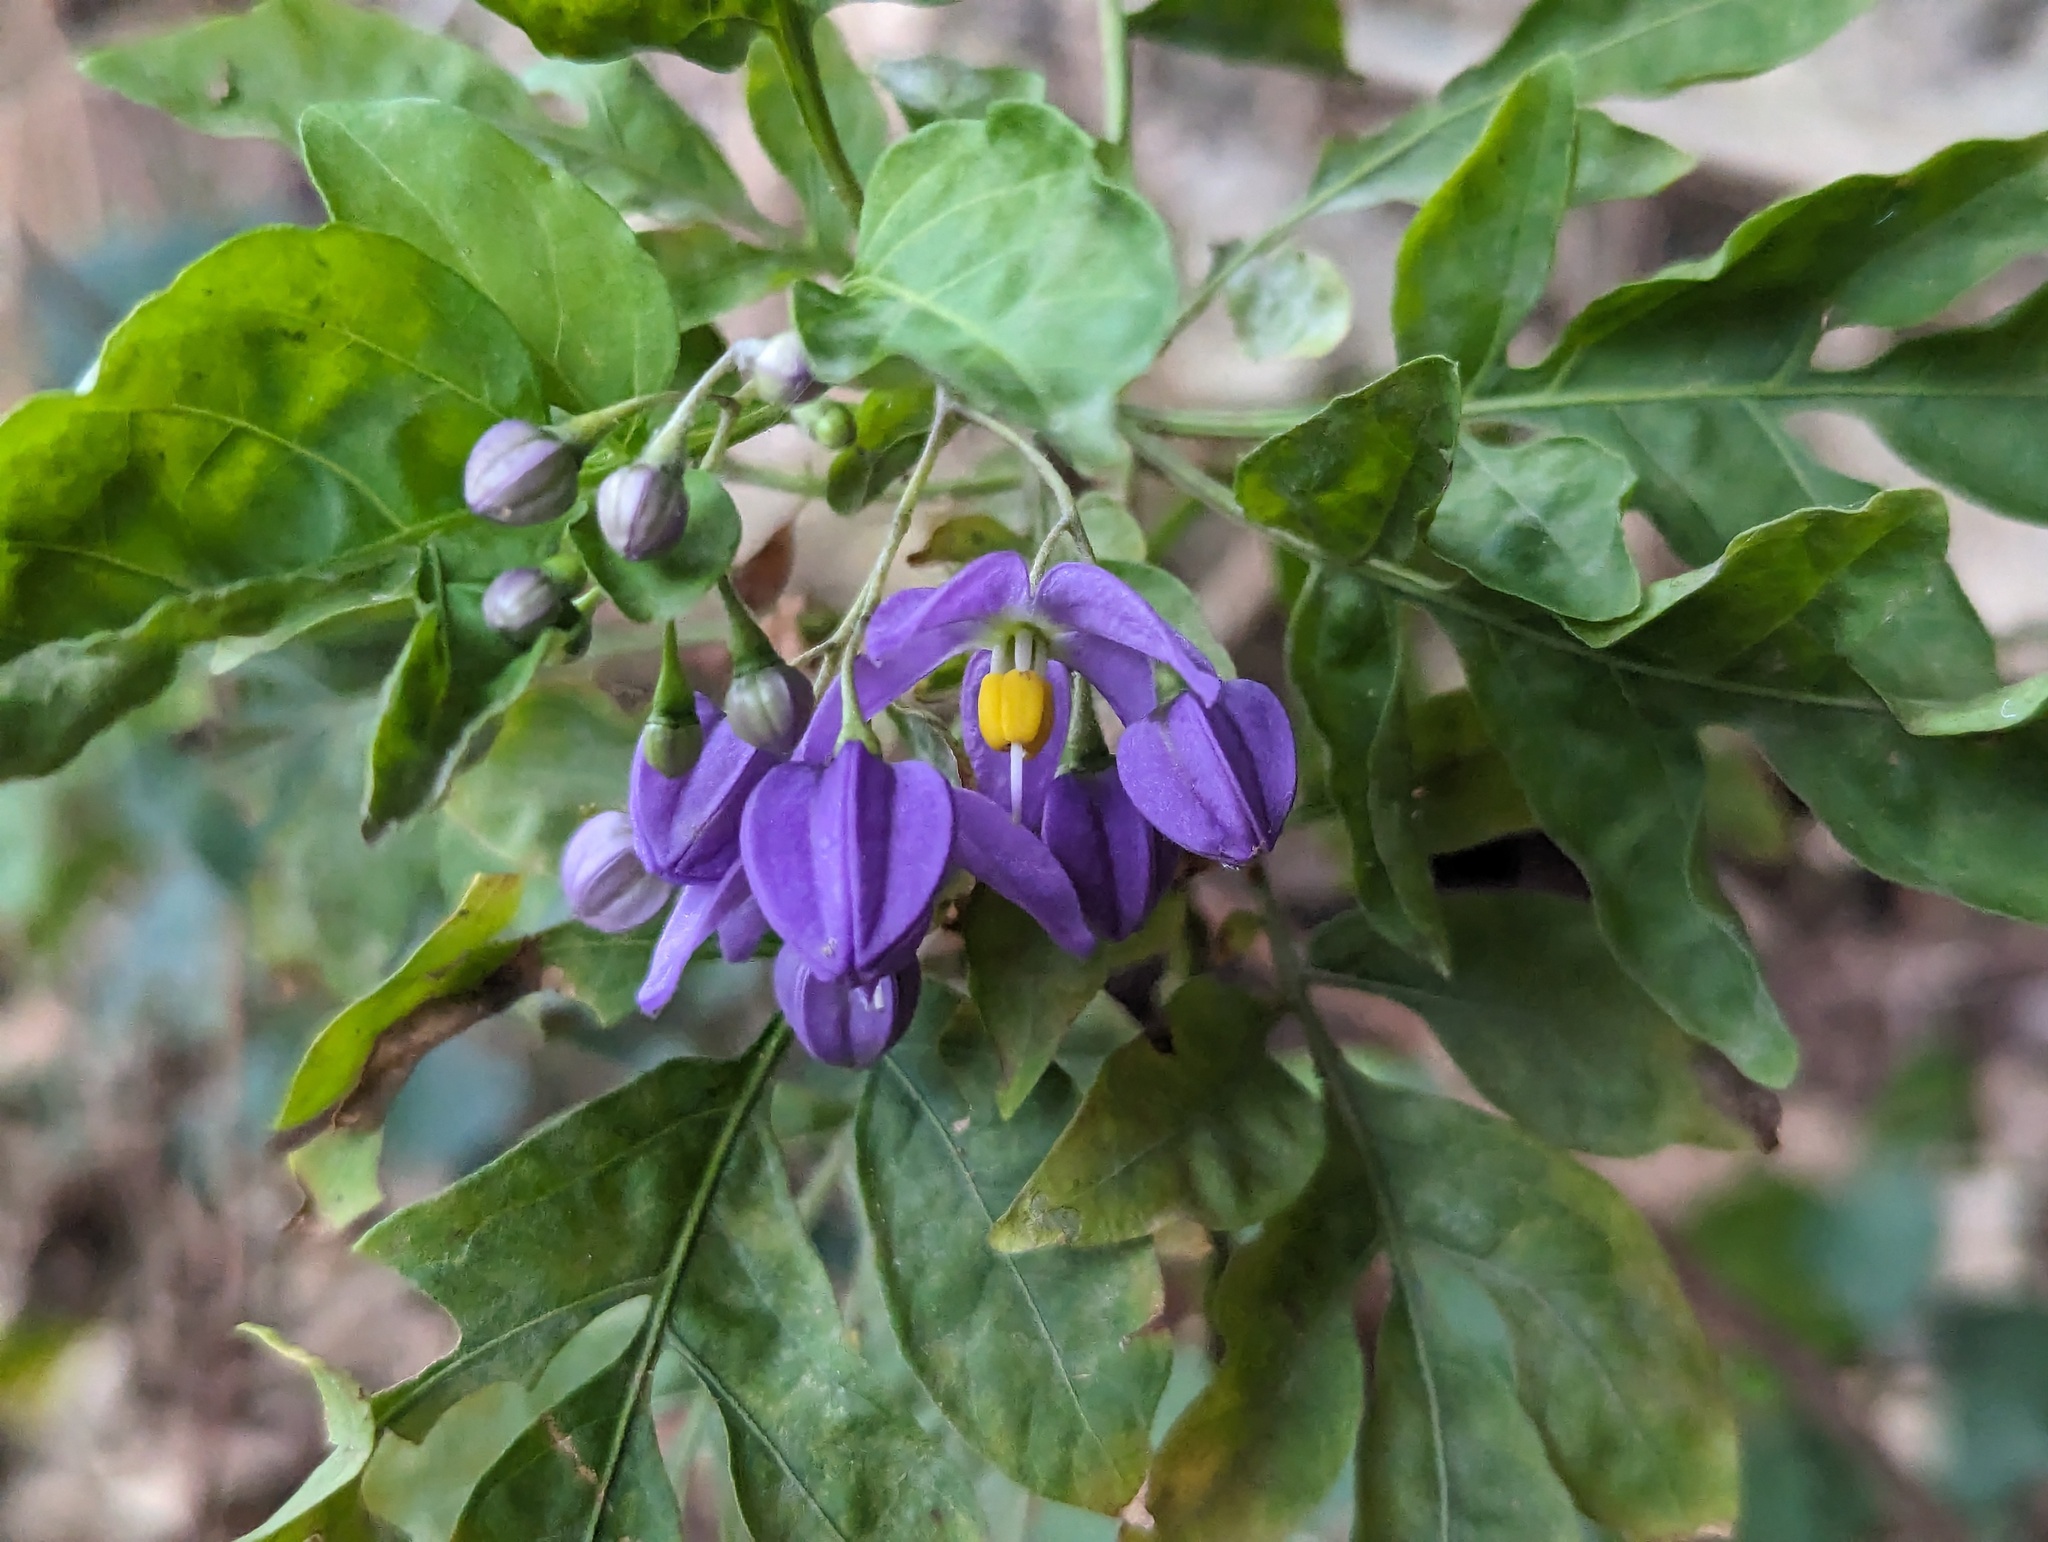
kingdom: Plantae
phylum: Tracheophyta
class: Magnoliopsida
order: Solanales
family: Solanaceae
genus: Solanum
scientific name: Solanum seaforthianum
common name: Brazilian nightshade
